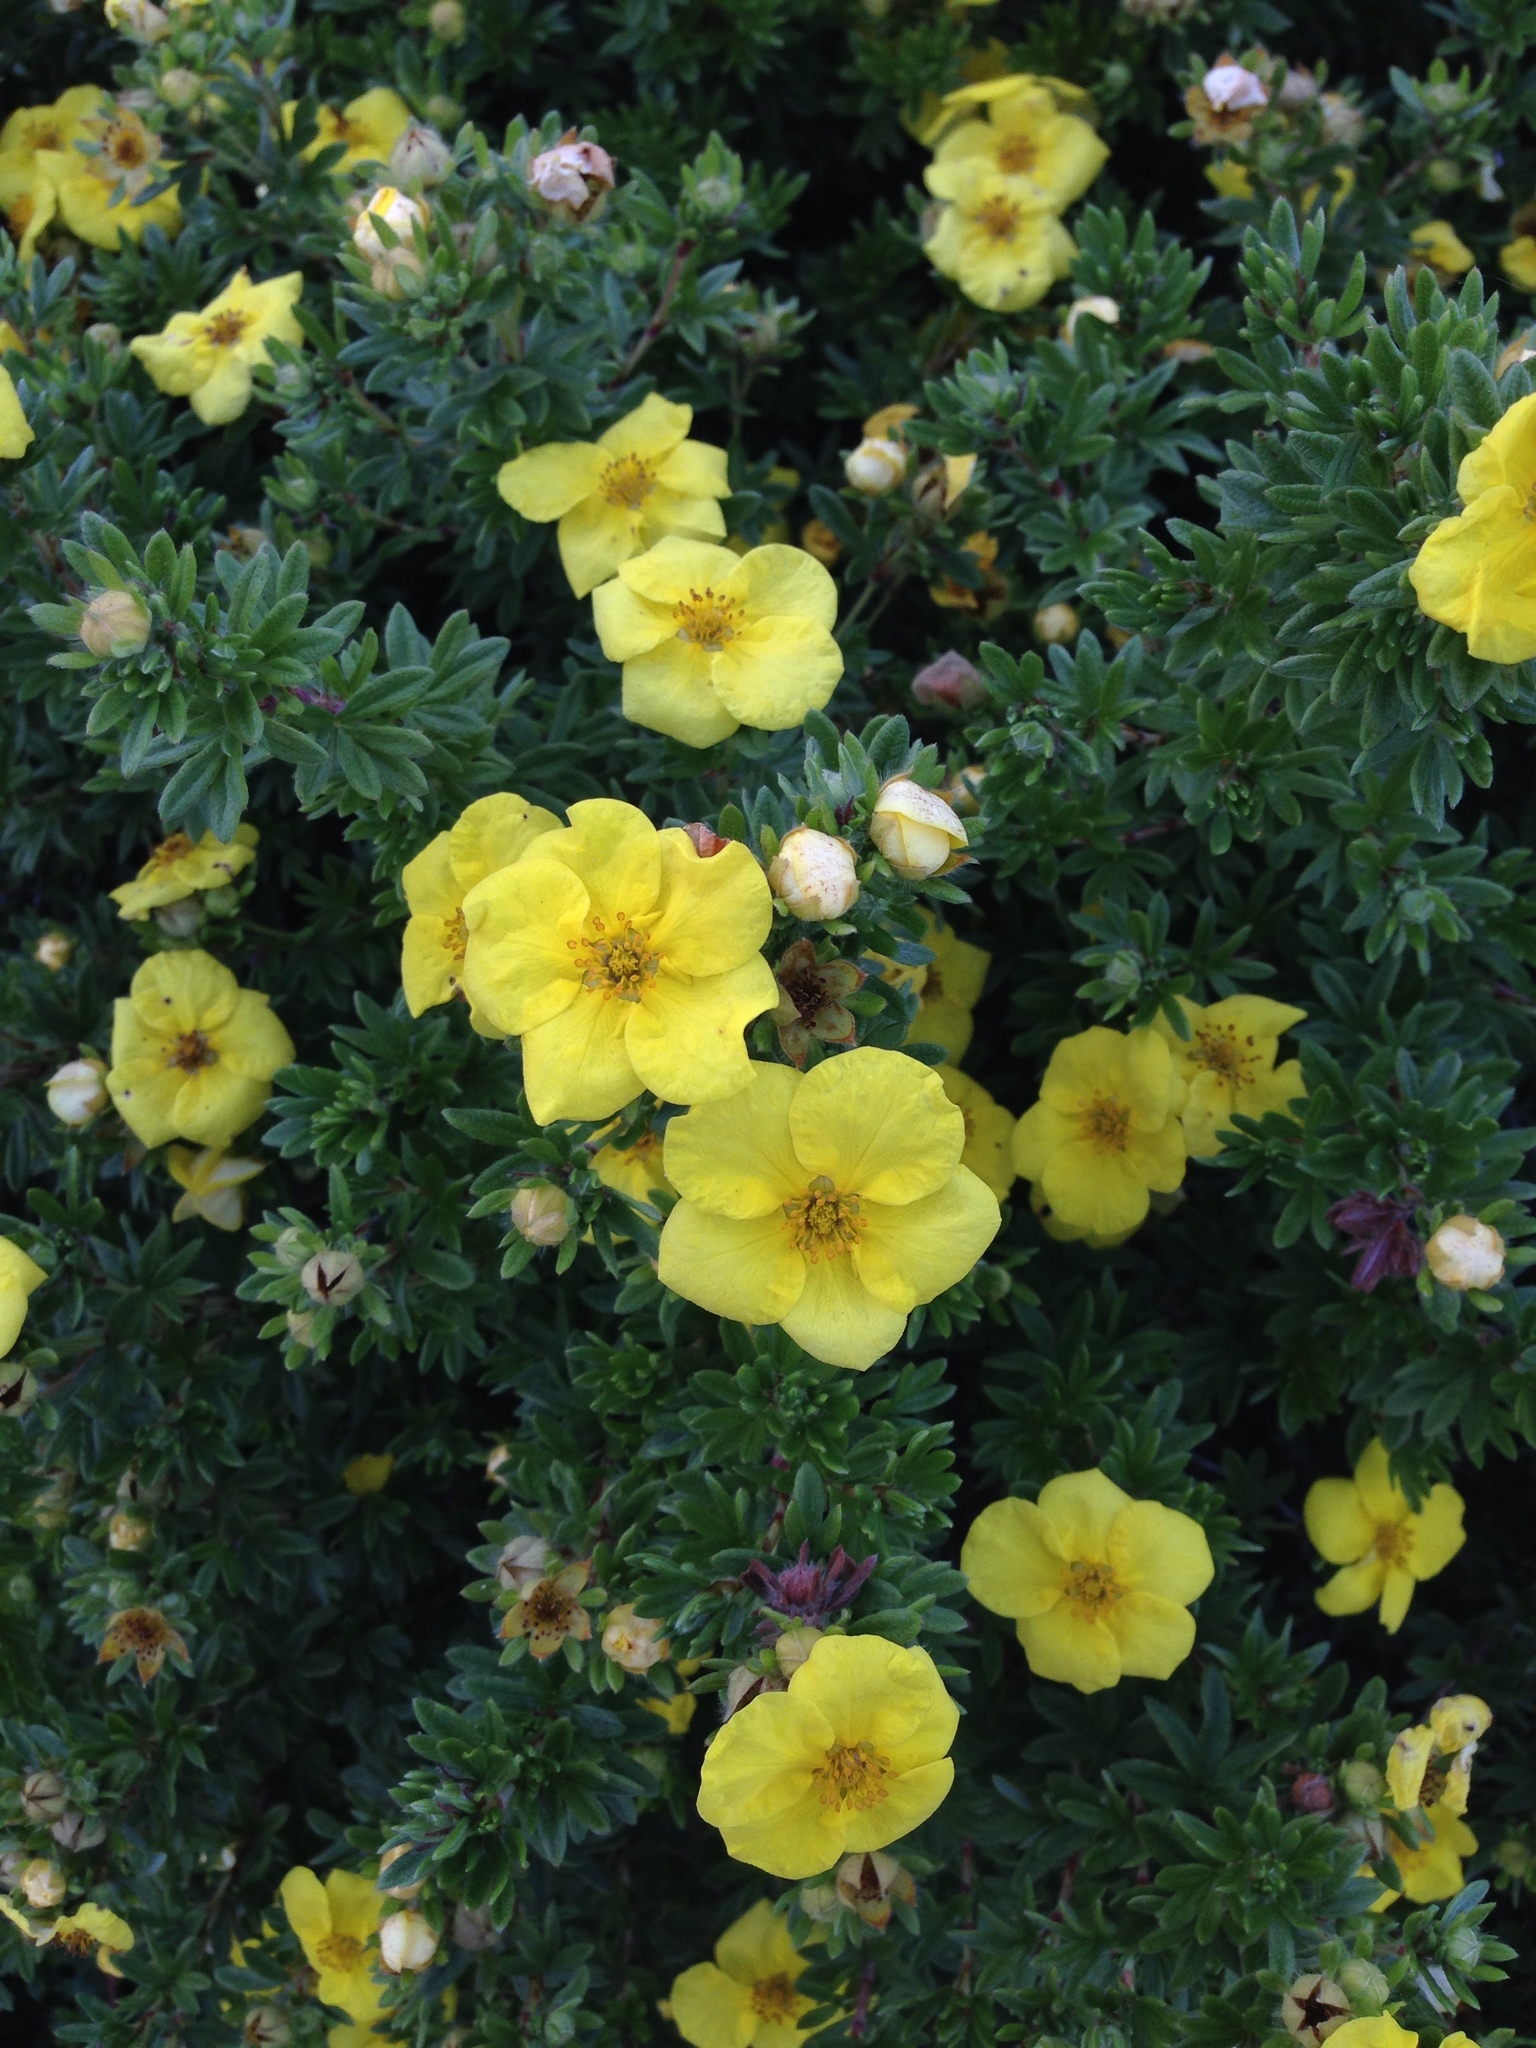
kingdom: Plantae
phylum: Tracheophyta
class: Magnoliopsida
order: Rosales
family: Rosaceae
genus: Dasiphora
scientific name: Dasiphora fruticosa
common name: Shrubby cinquefoil
